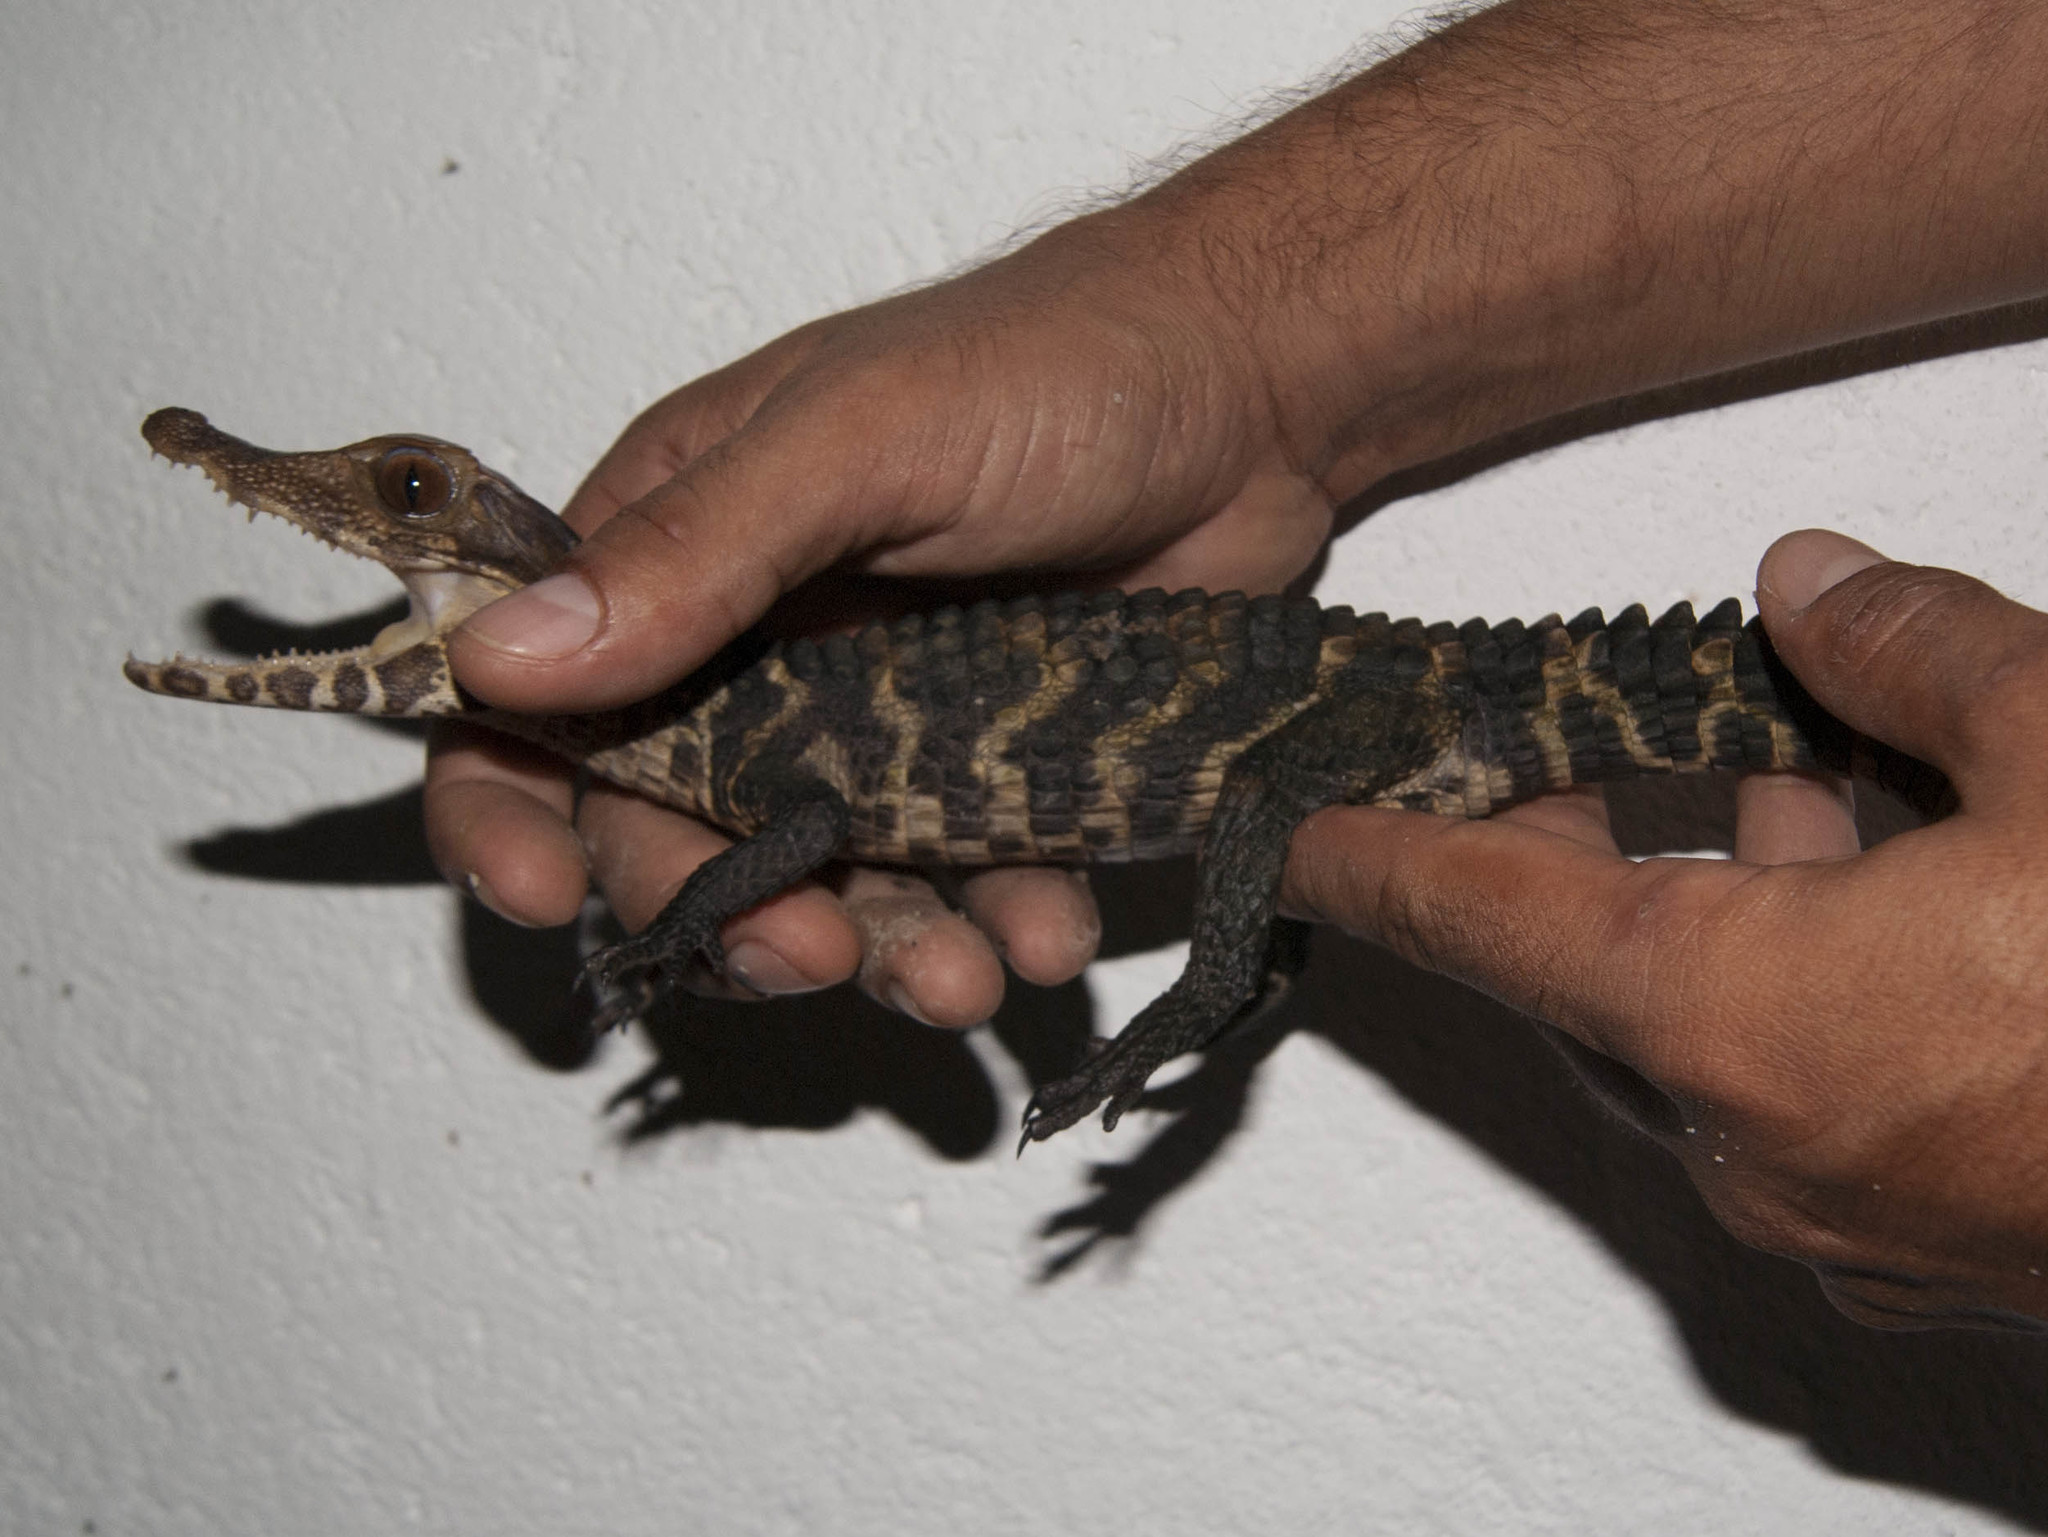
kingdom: Animalia
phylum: Chordata
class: Crocodylia
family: Alligatoridae
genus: Paleosuchus
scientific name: Paleosuchus palpebrosus
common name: Cuvier's smooth-fronted caiman
